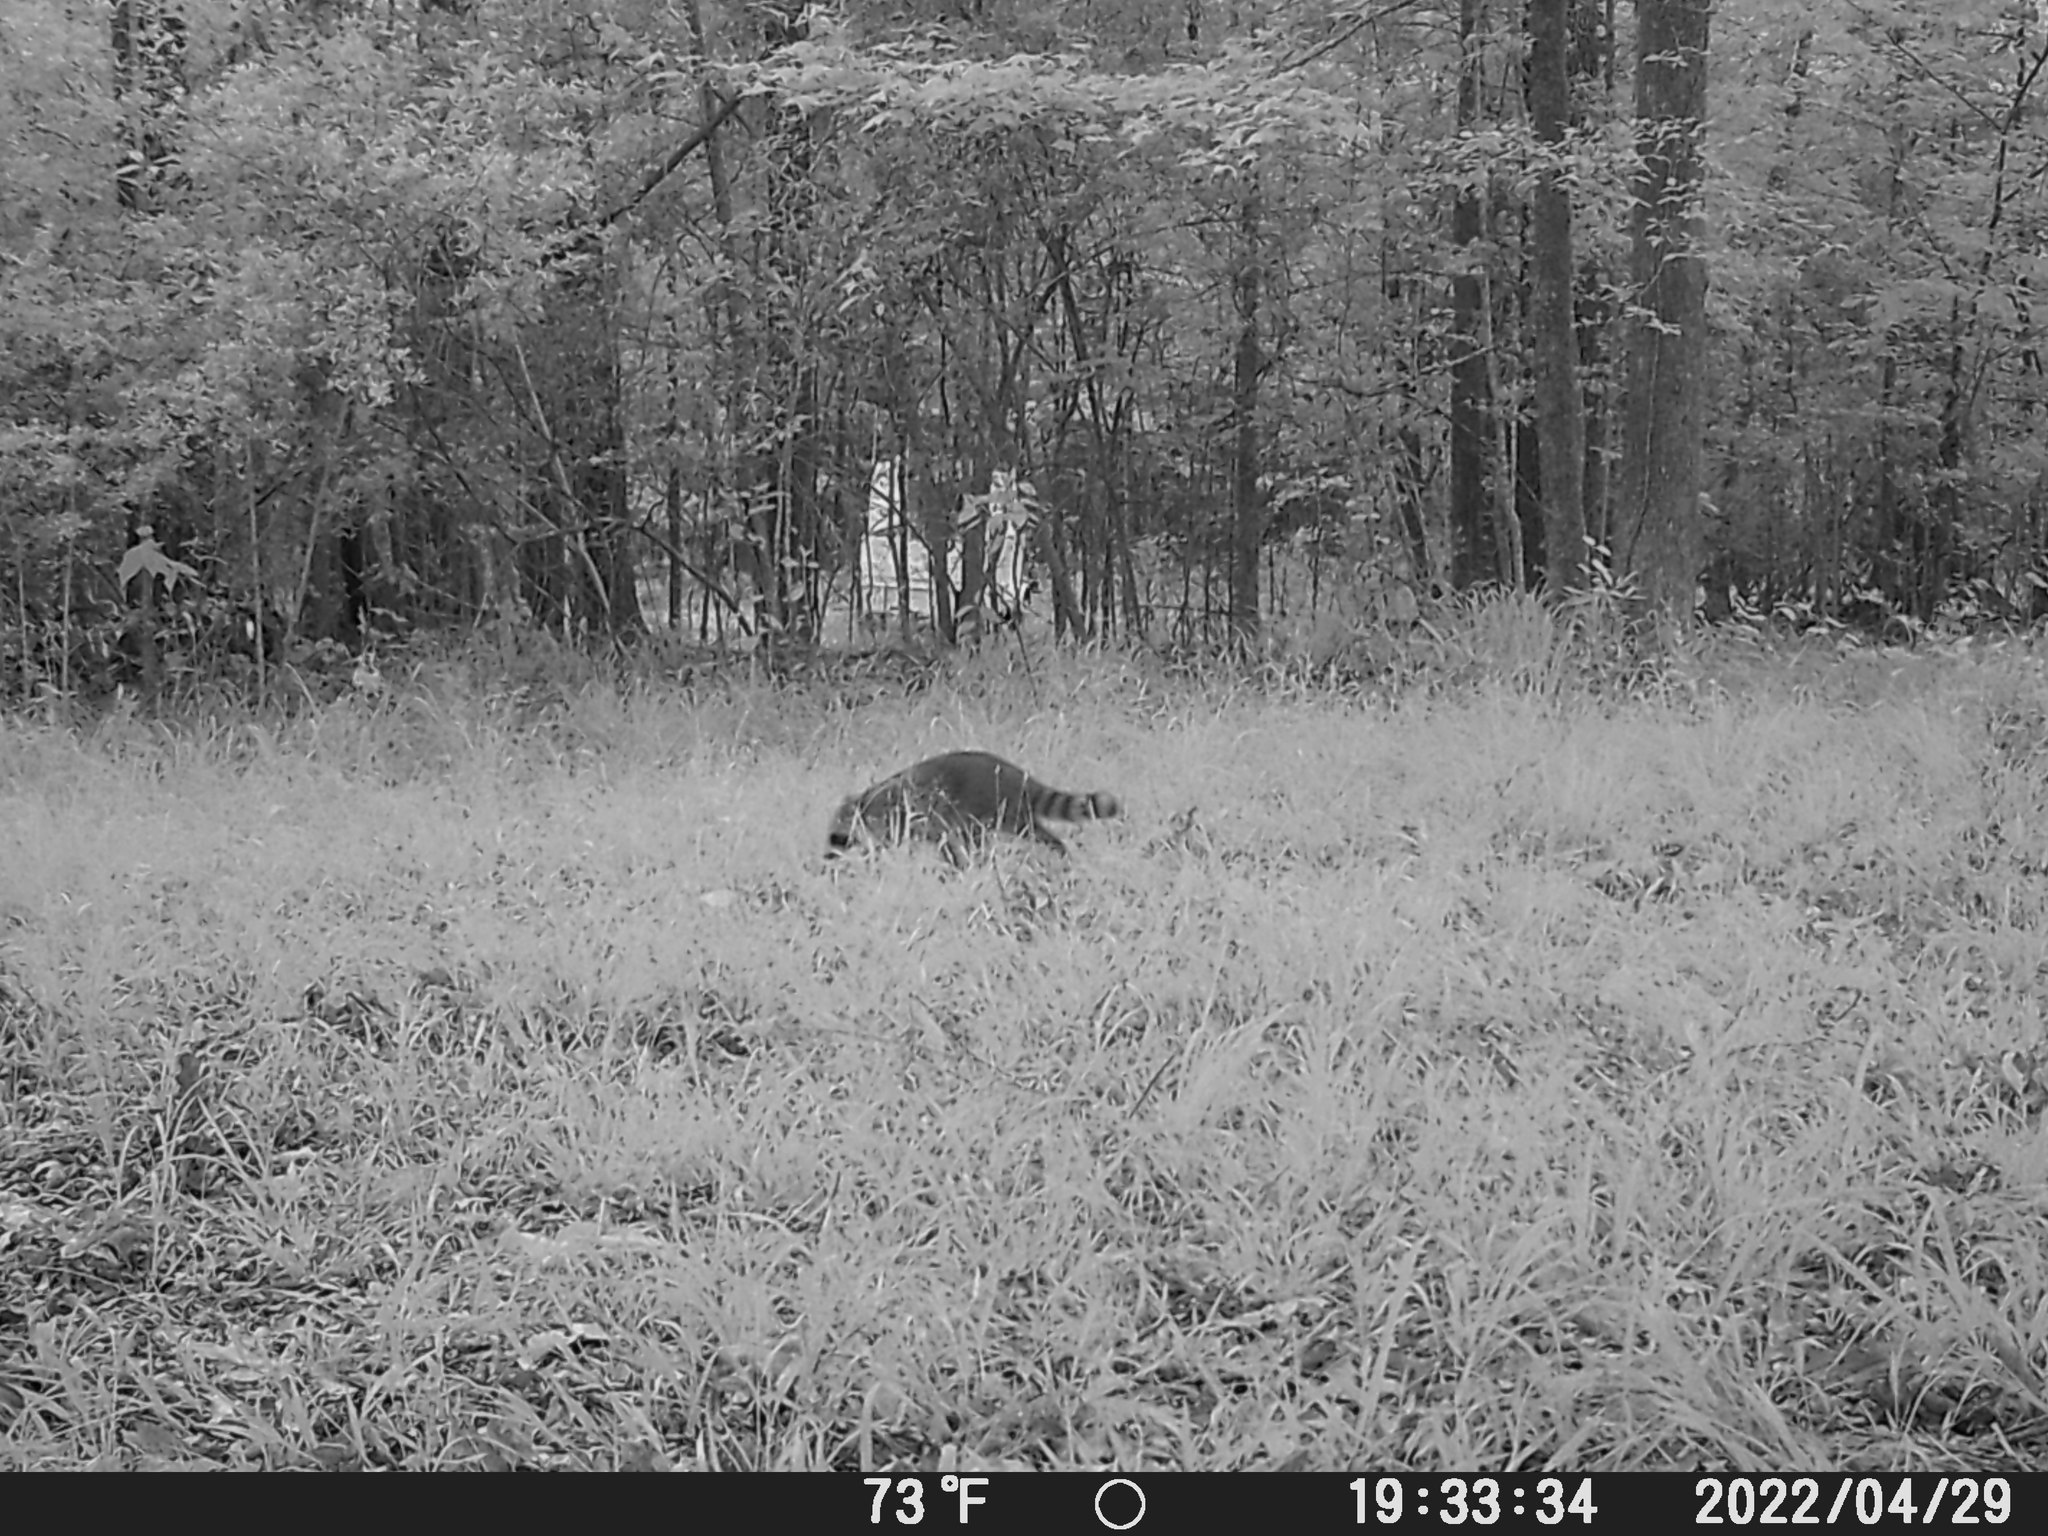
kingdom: Animalia
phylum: Chordata
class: Mammalia
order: Carnivora
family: Procyonidae
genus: Procyon
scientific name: Procyon lotor
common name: Raccoon
